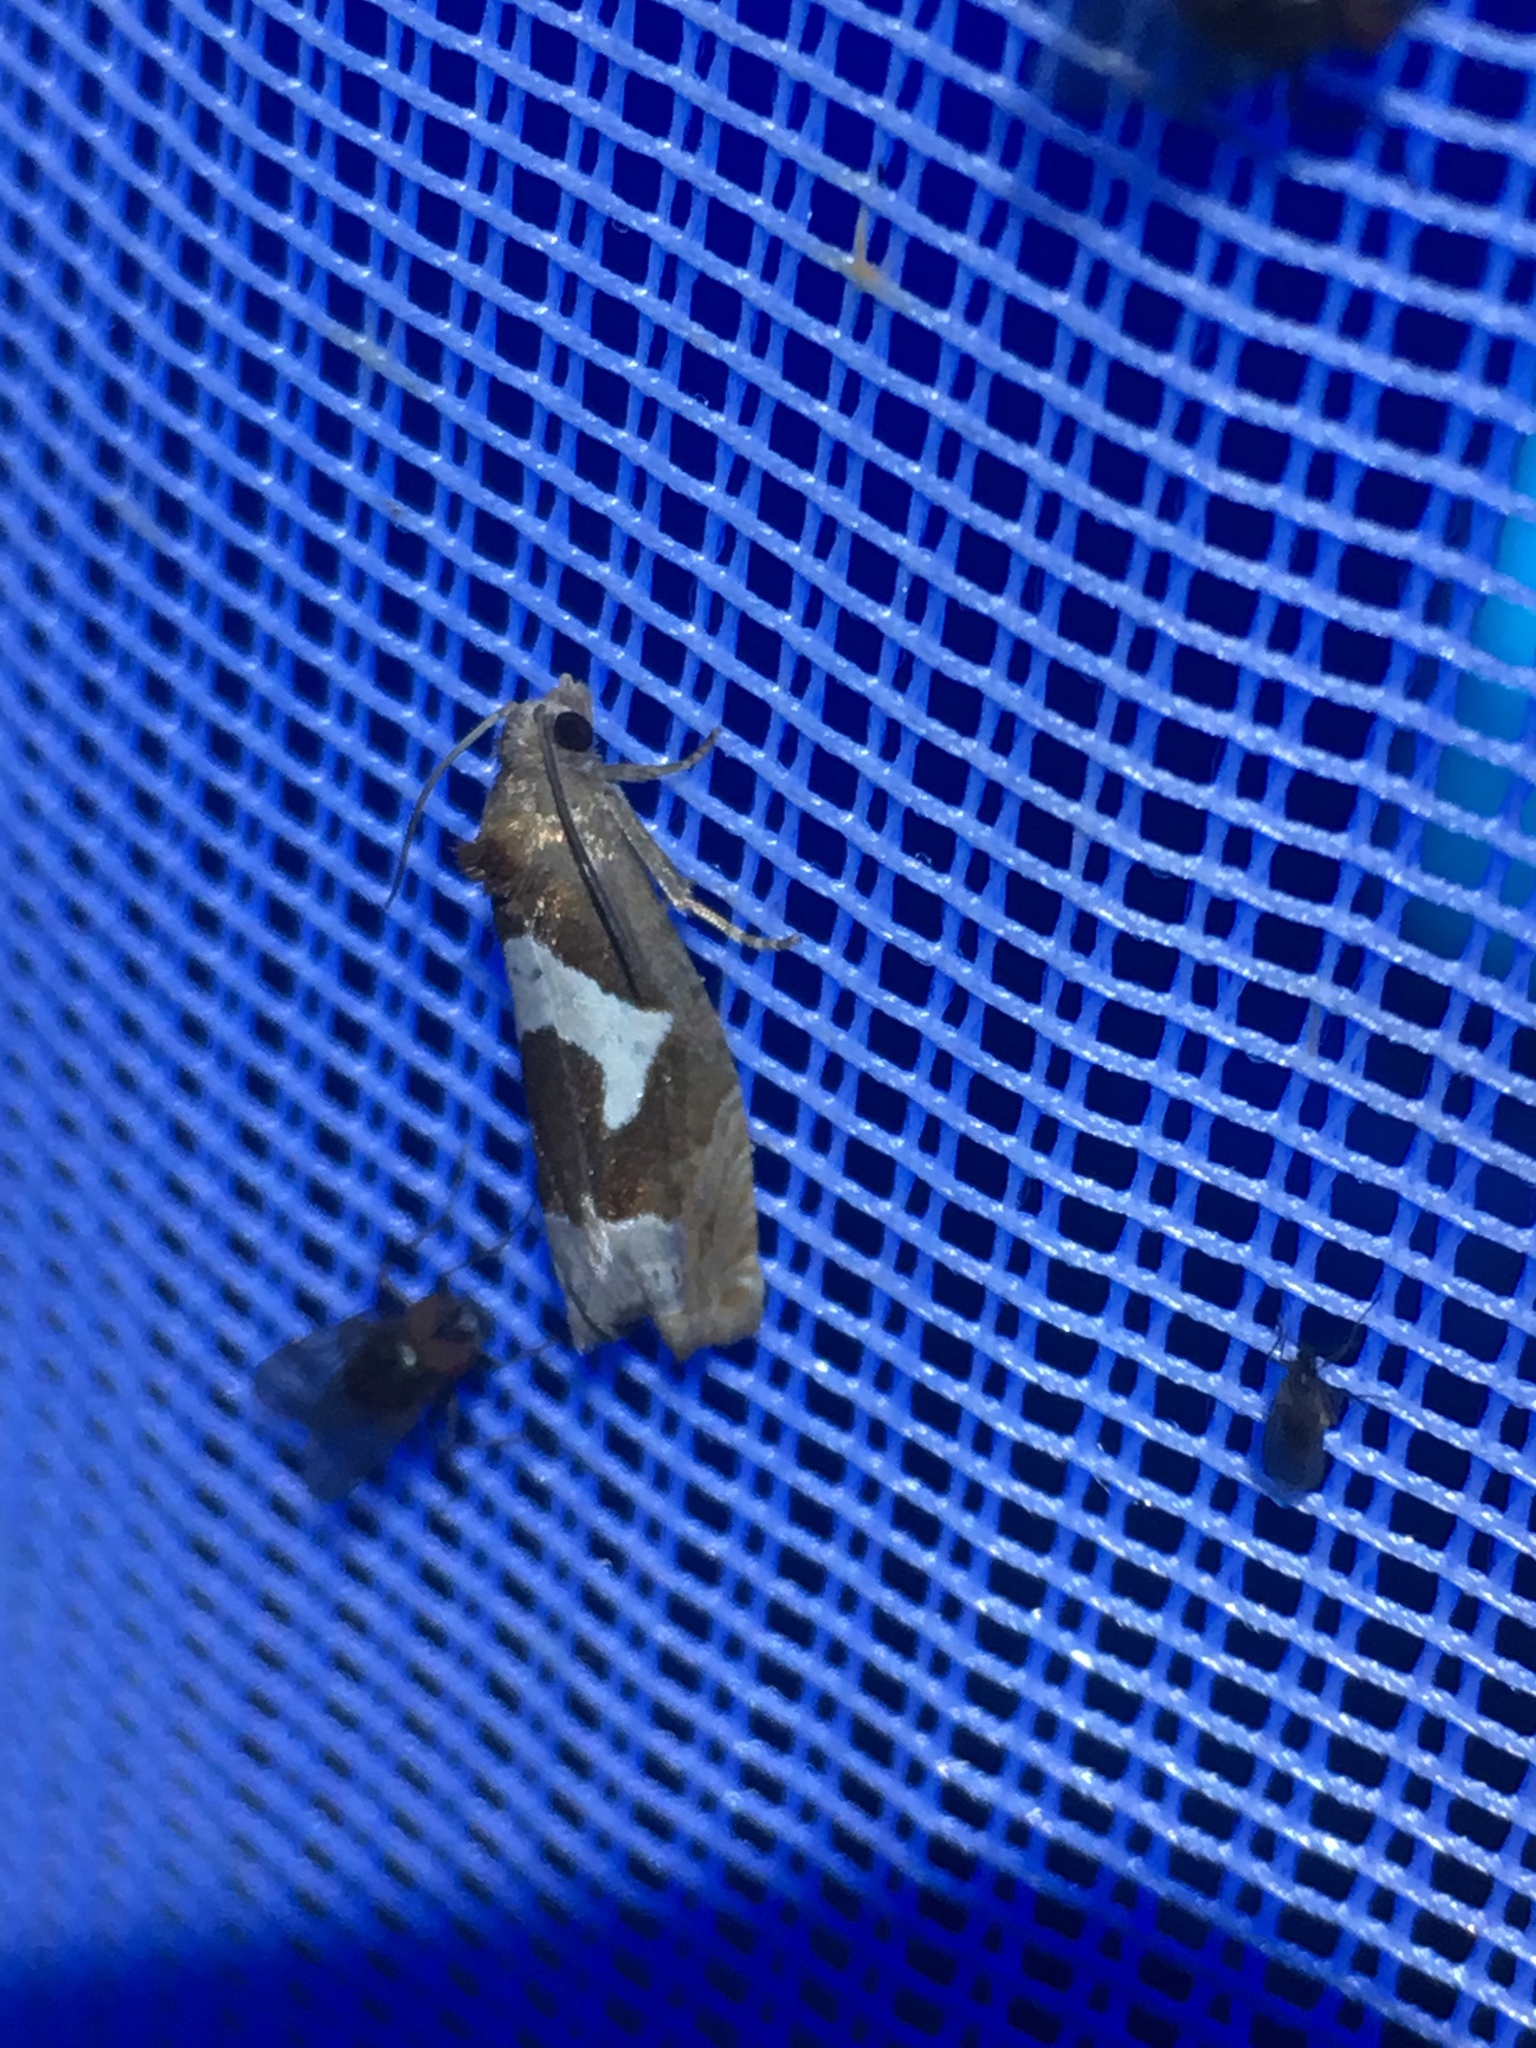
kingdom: Animalia
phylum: Arthropoda
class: Insecta
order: Lepidoptera
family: Tortricidae
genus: Epiblema
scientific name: Epiblema foenella
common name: White-foot bell
